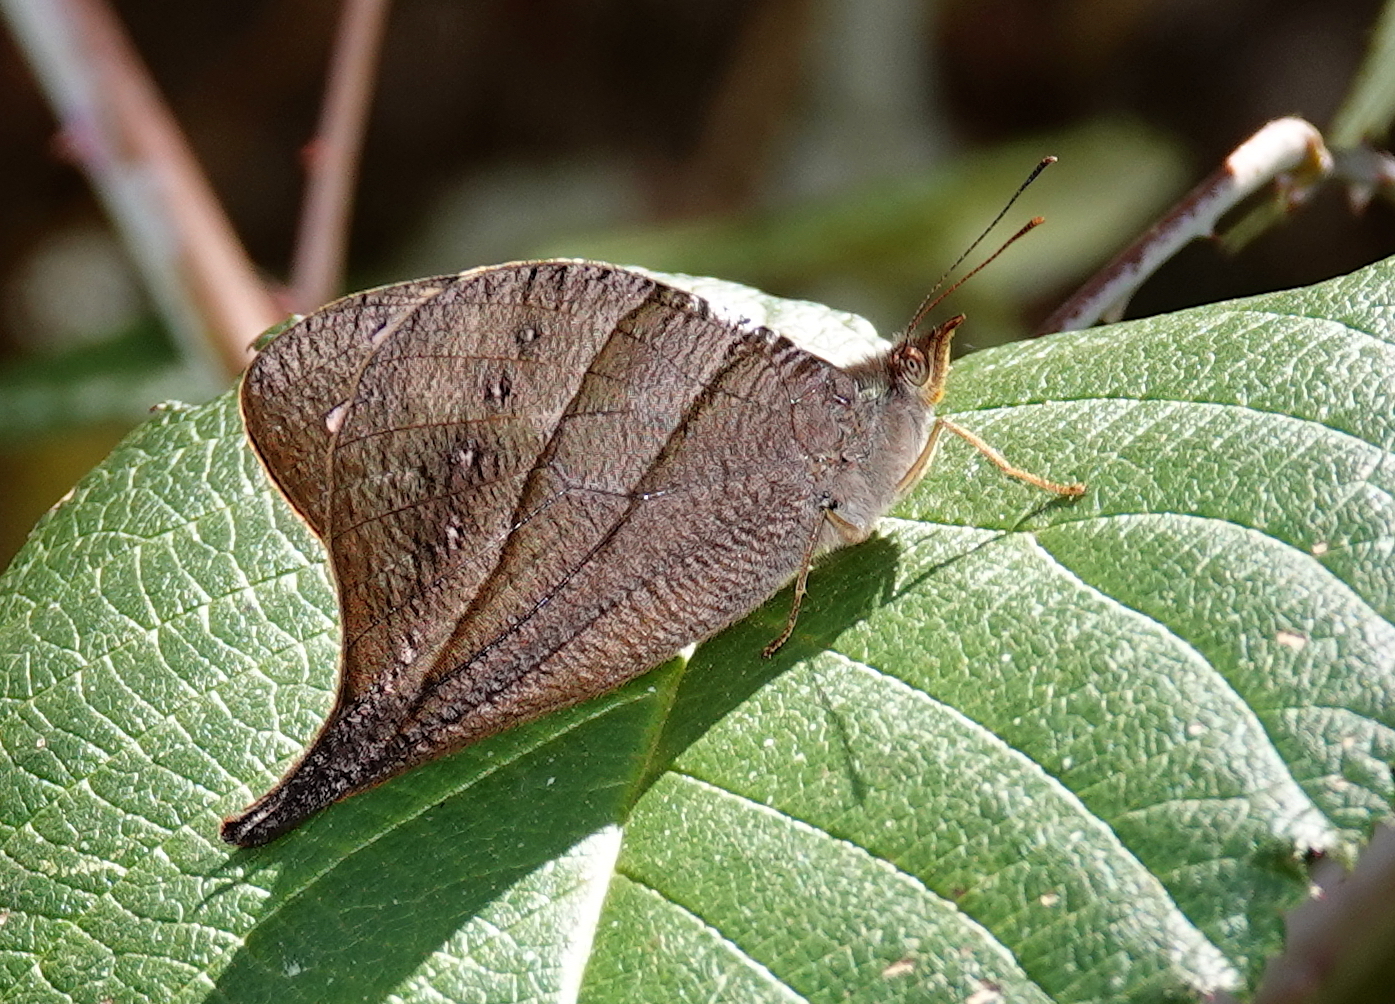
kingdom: Animalia
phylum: Arthropoda
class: Insecta
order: Lepidoptera
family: Nymphalidae
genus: Corades
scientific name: Corades chelonis
